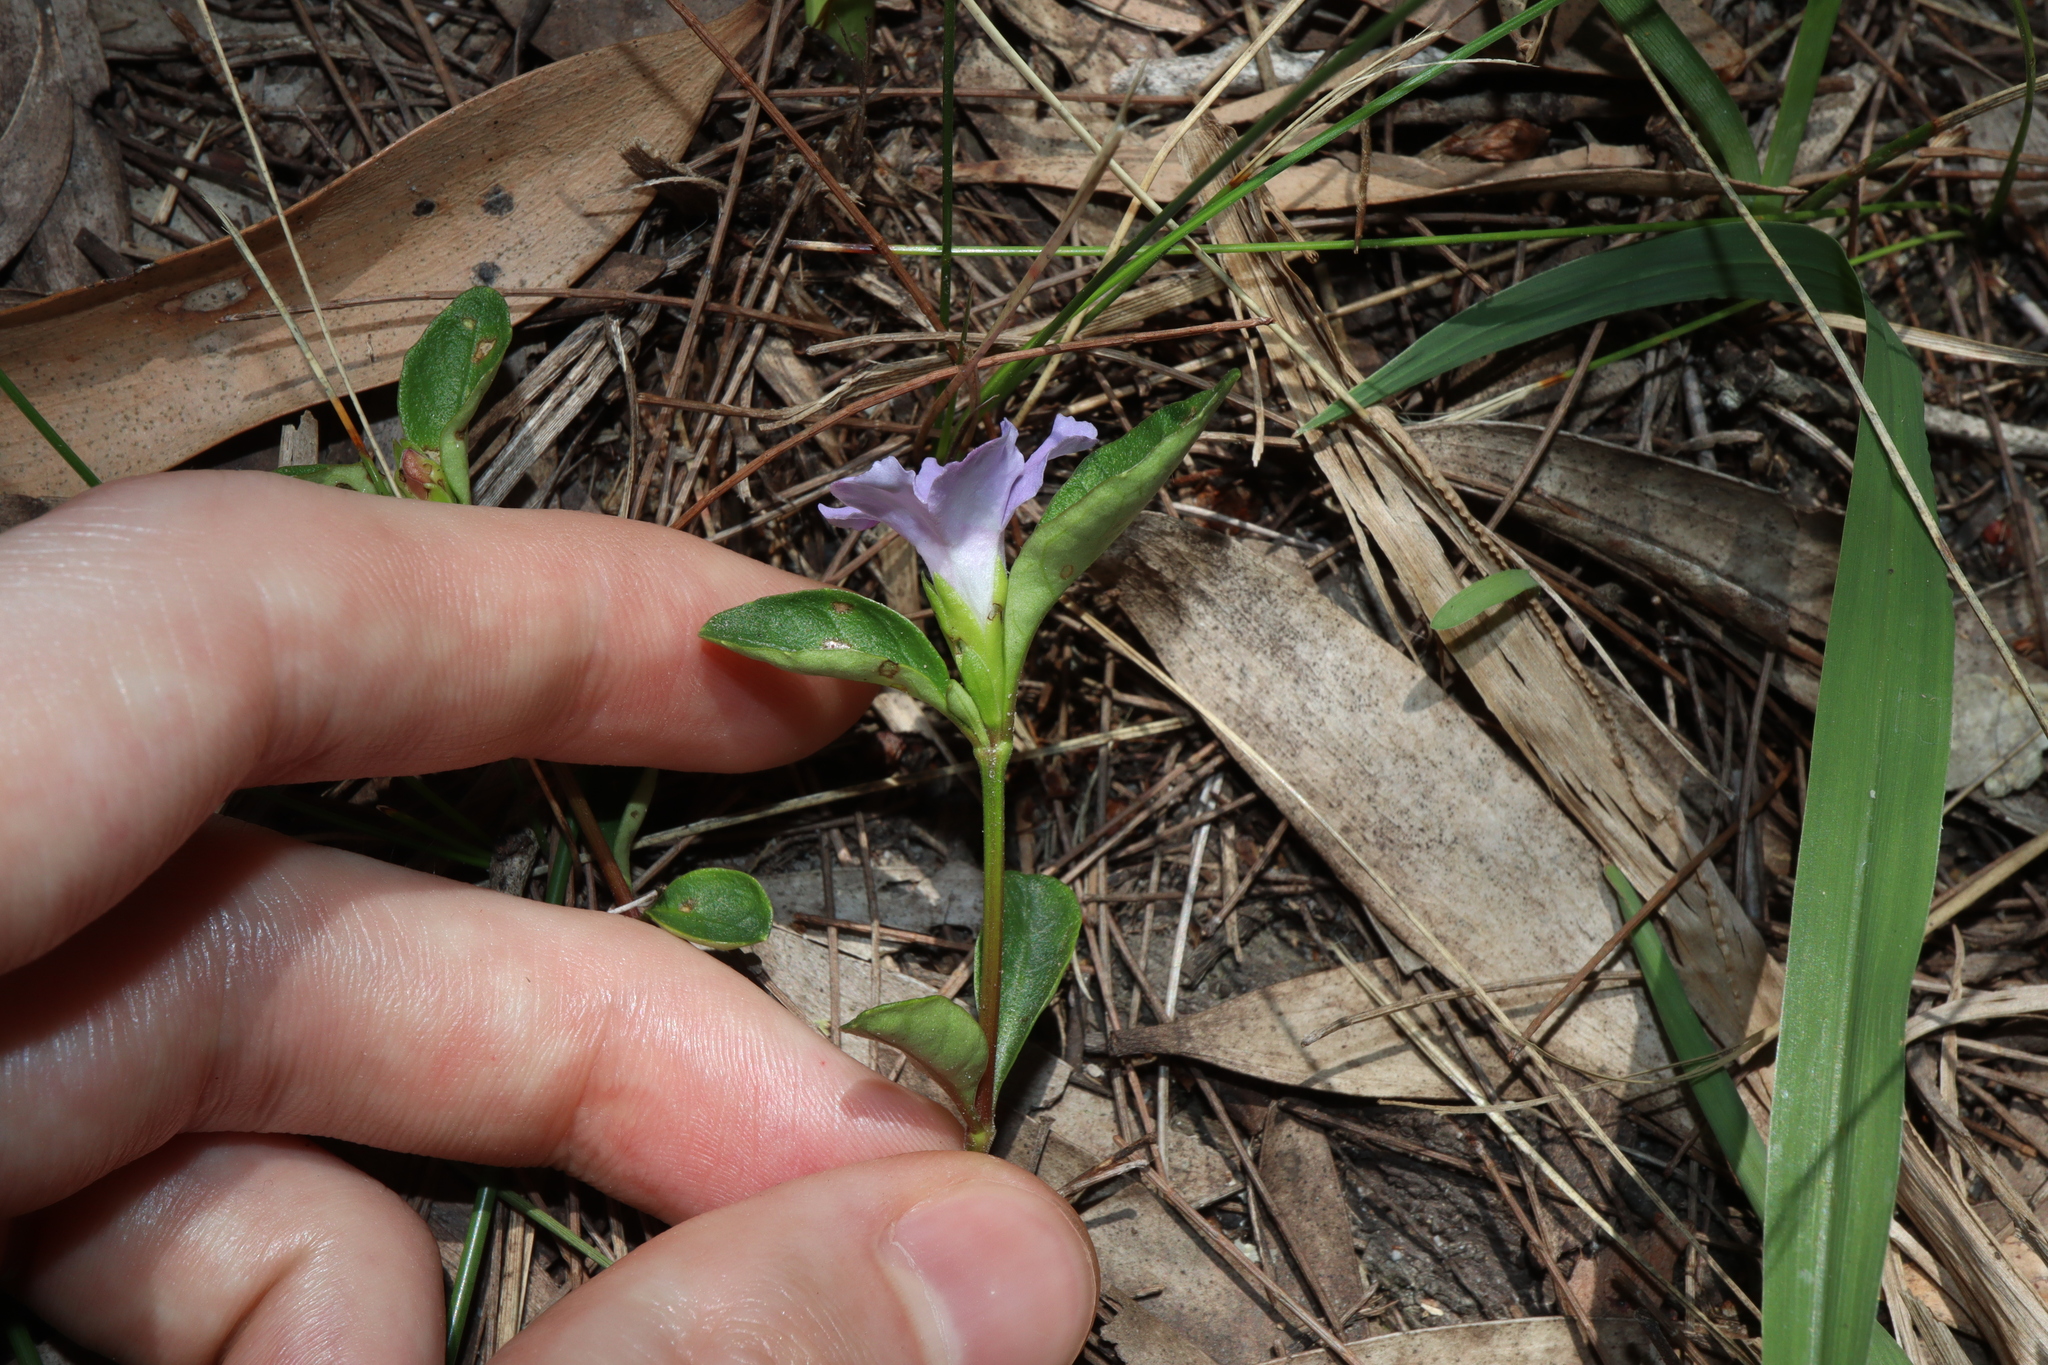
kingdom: Plantae
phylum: Tracheophyta
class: Magnoliopsida
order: Lamiales
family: Acanthaceae
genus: Brunoniella
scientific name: Brunoniella australis
